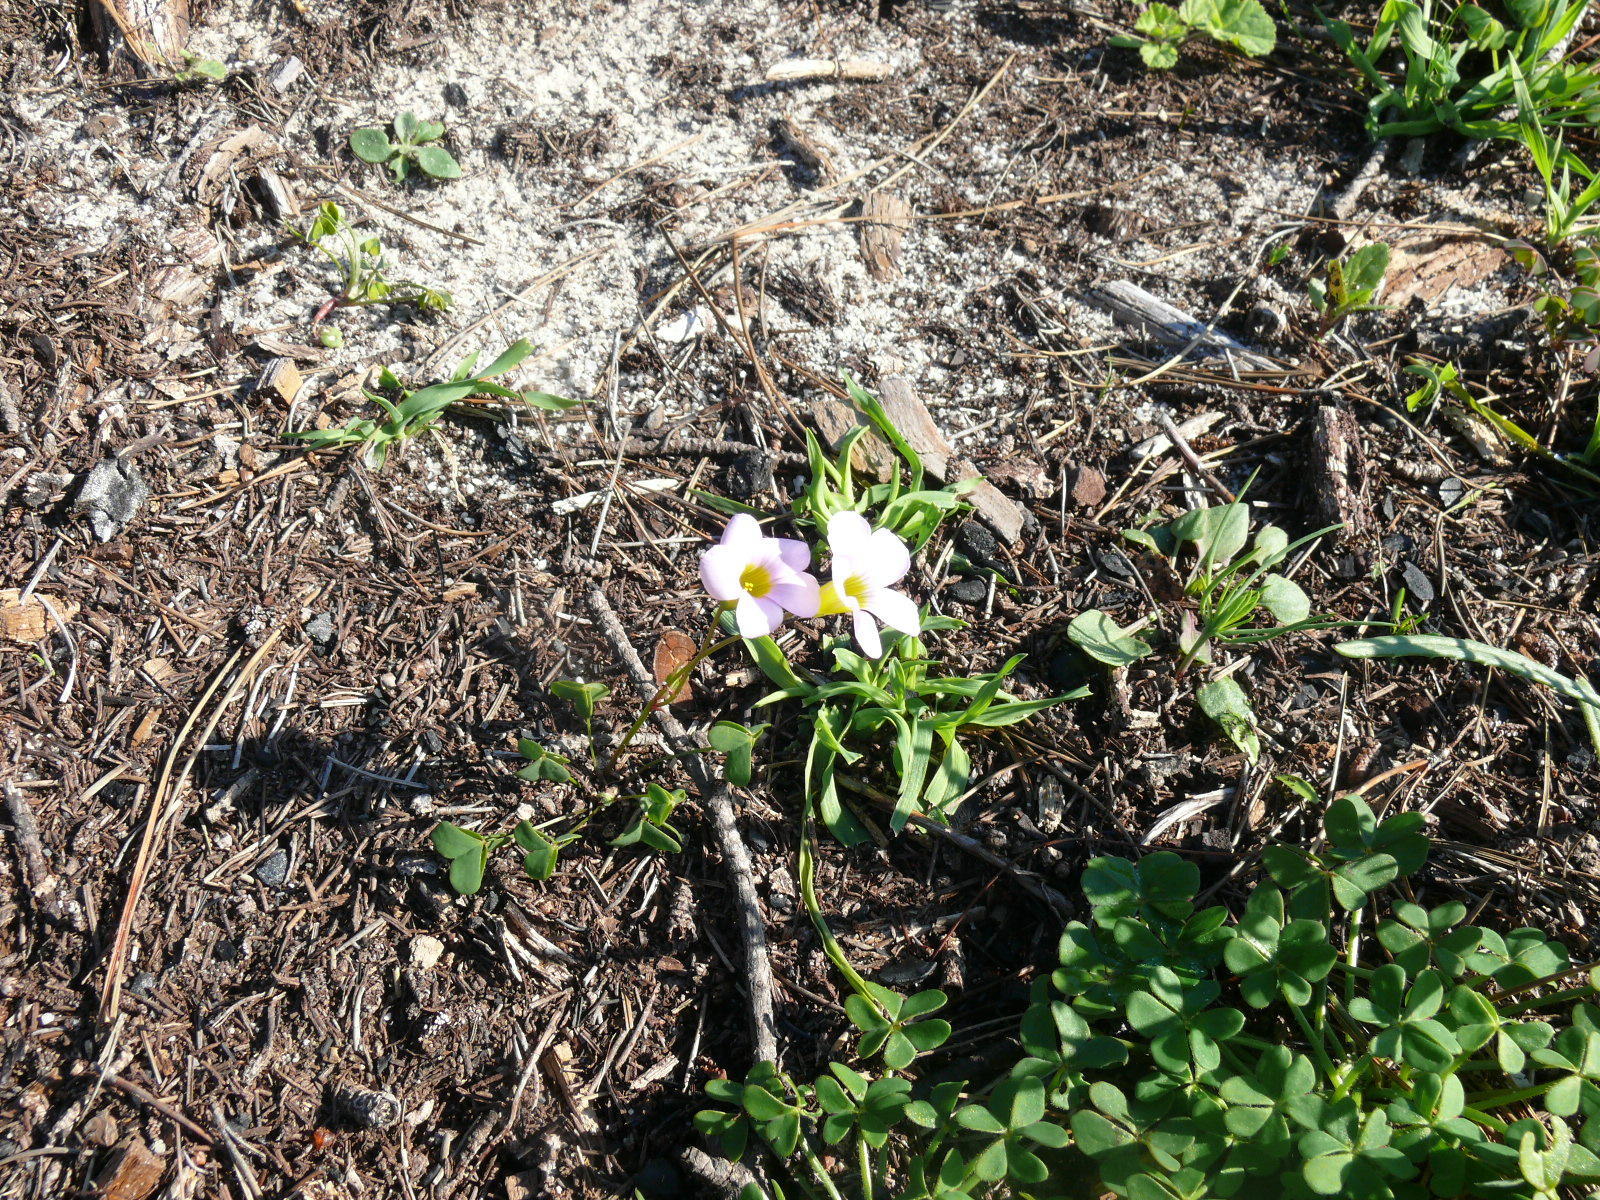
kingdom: Plantae
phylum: Tracheophyta
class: Magnoliopsida
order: Oxalidales
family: Oxalidaceae
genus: Oxalis
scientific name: Oxalis lanata
